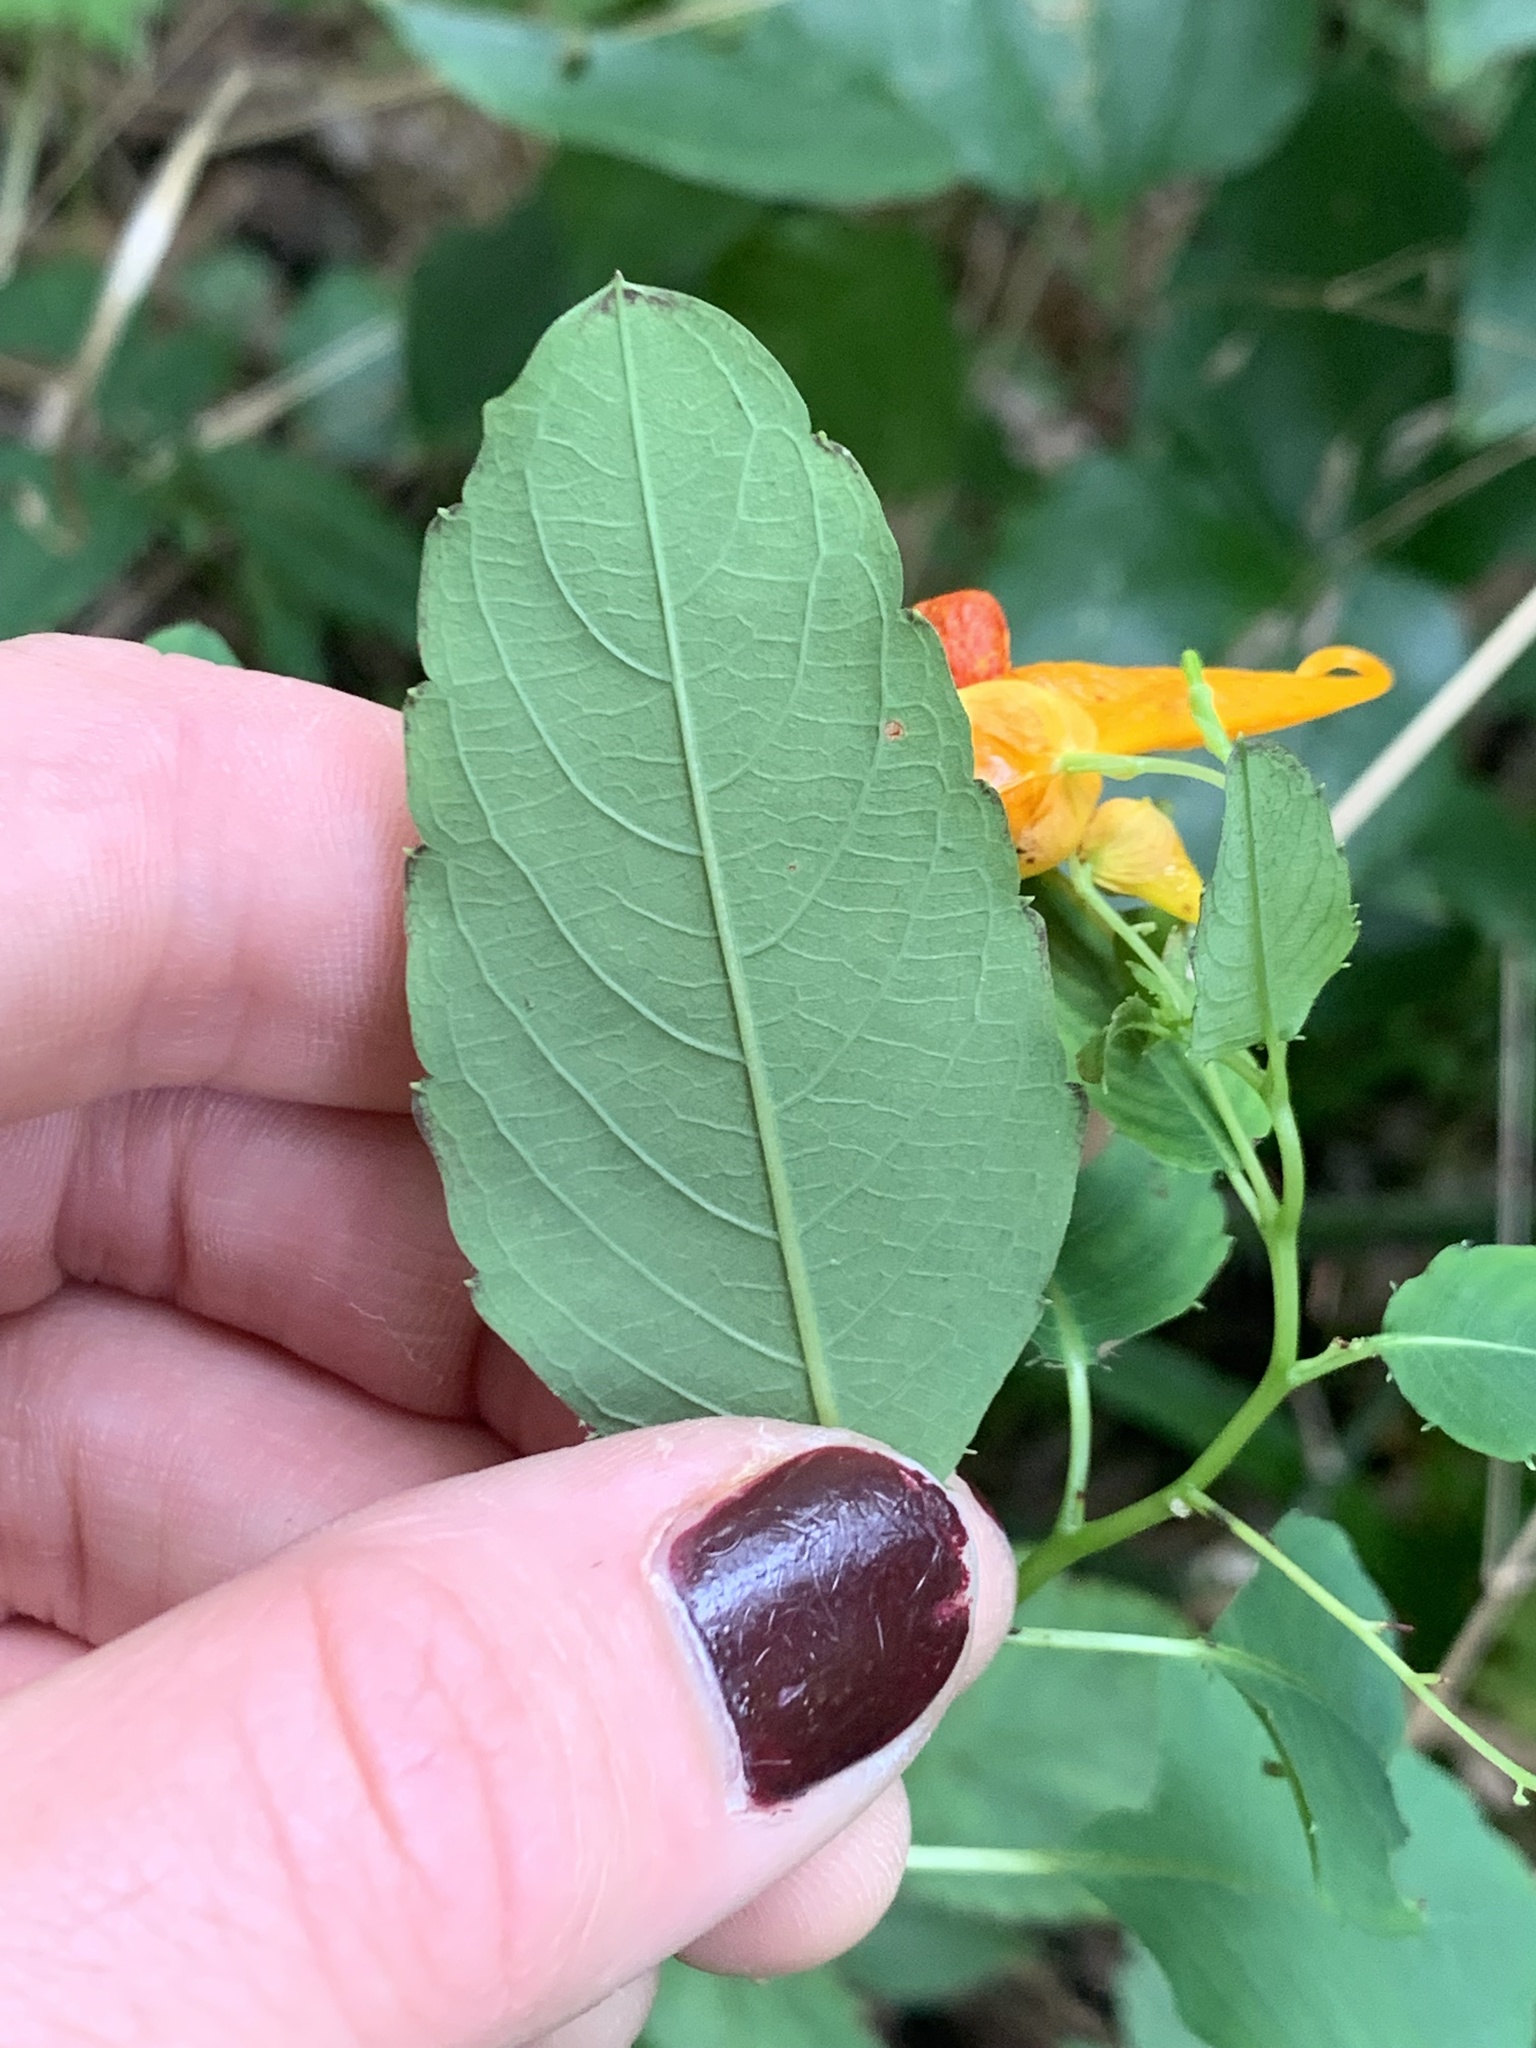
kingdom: Plantae
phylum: Tracheophyta
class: Magnoliopsida
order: Ericales
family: Balsaminaceae
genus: Impatiens
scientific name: Impatiens capensis
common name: Orange balsam
